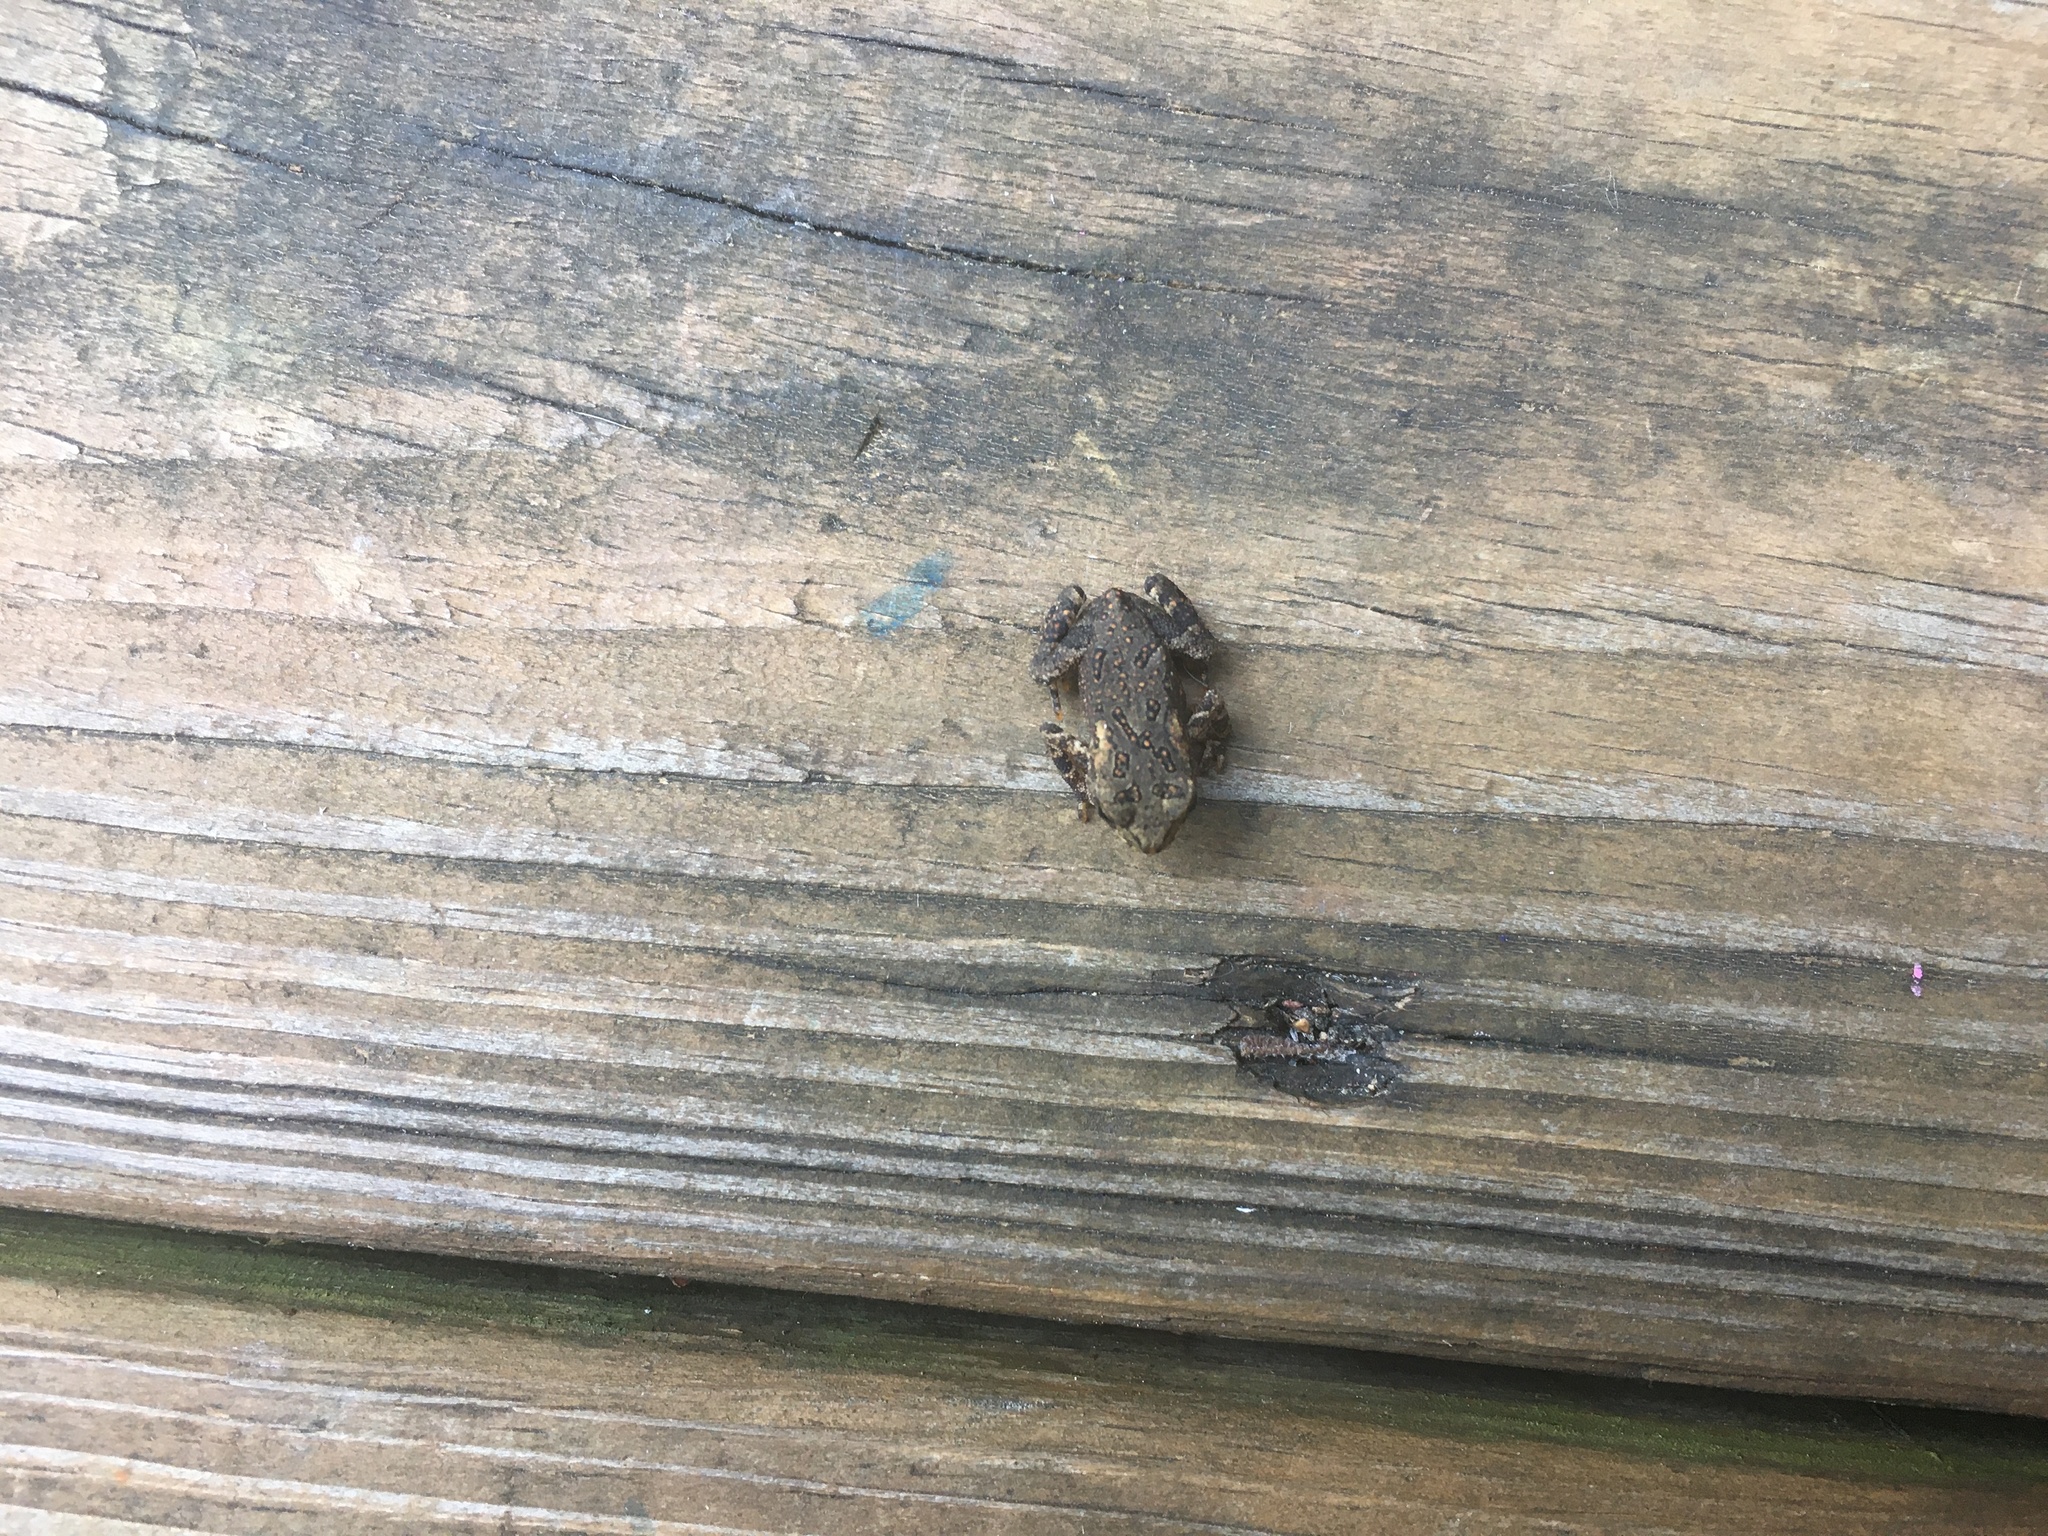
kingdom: Animalia
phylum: Chordata
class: Amphibia
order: Anura
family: Bufonidae
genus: Anaxyrus
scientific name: Anaxyrus americanus
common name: American toad
